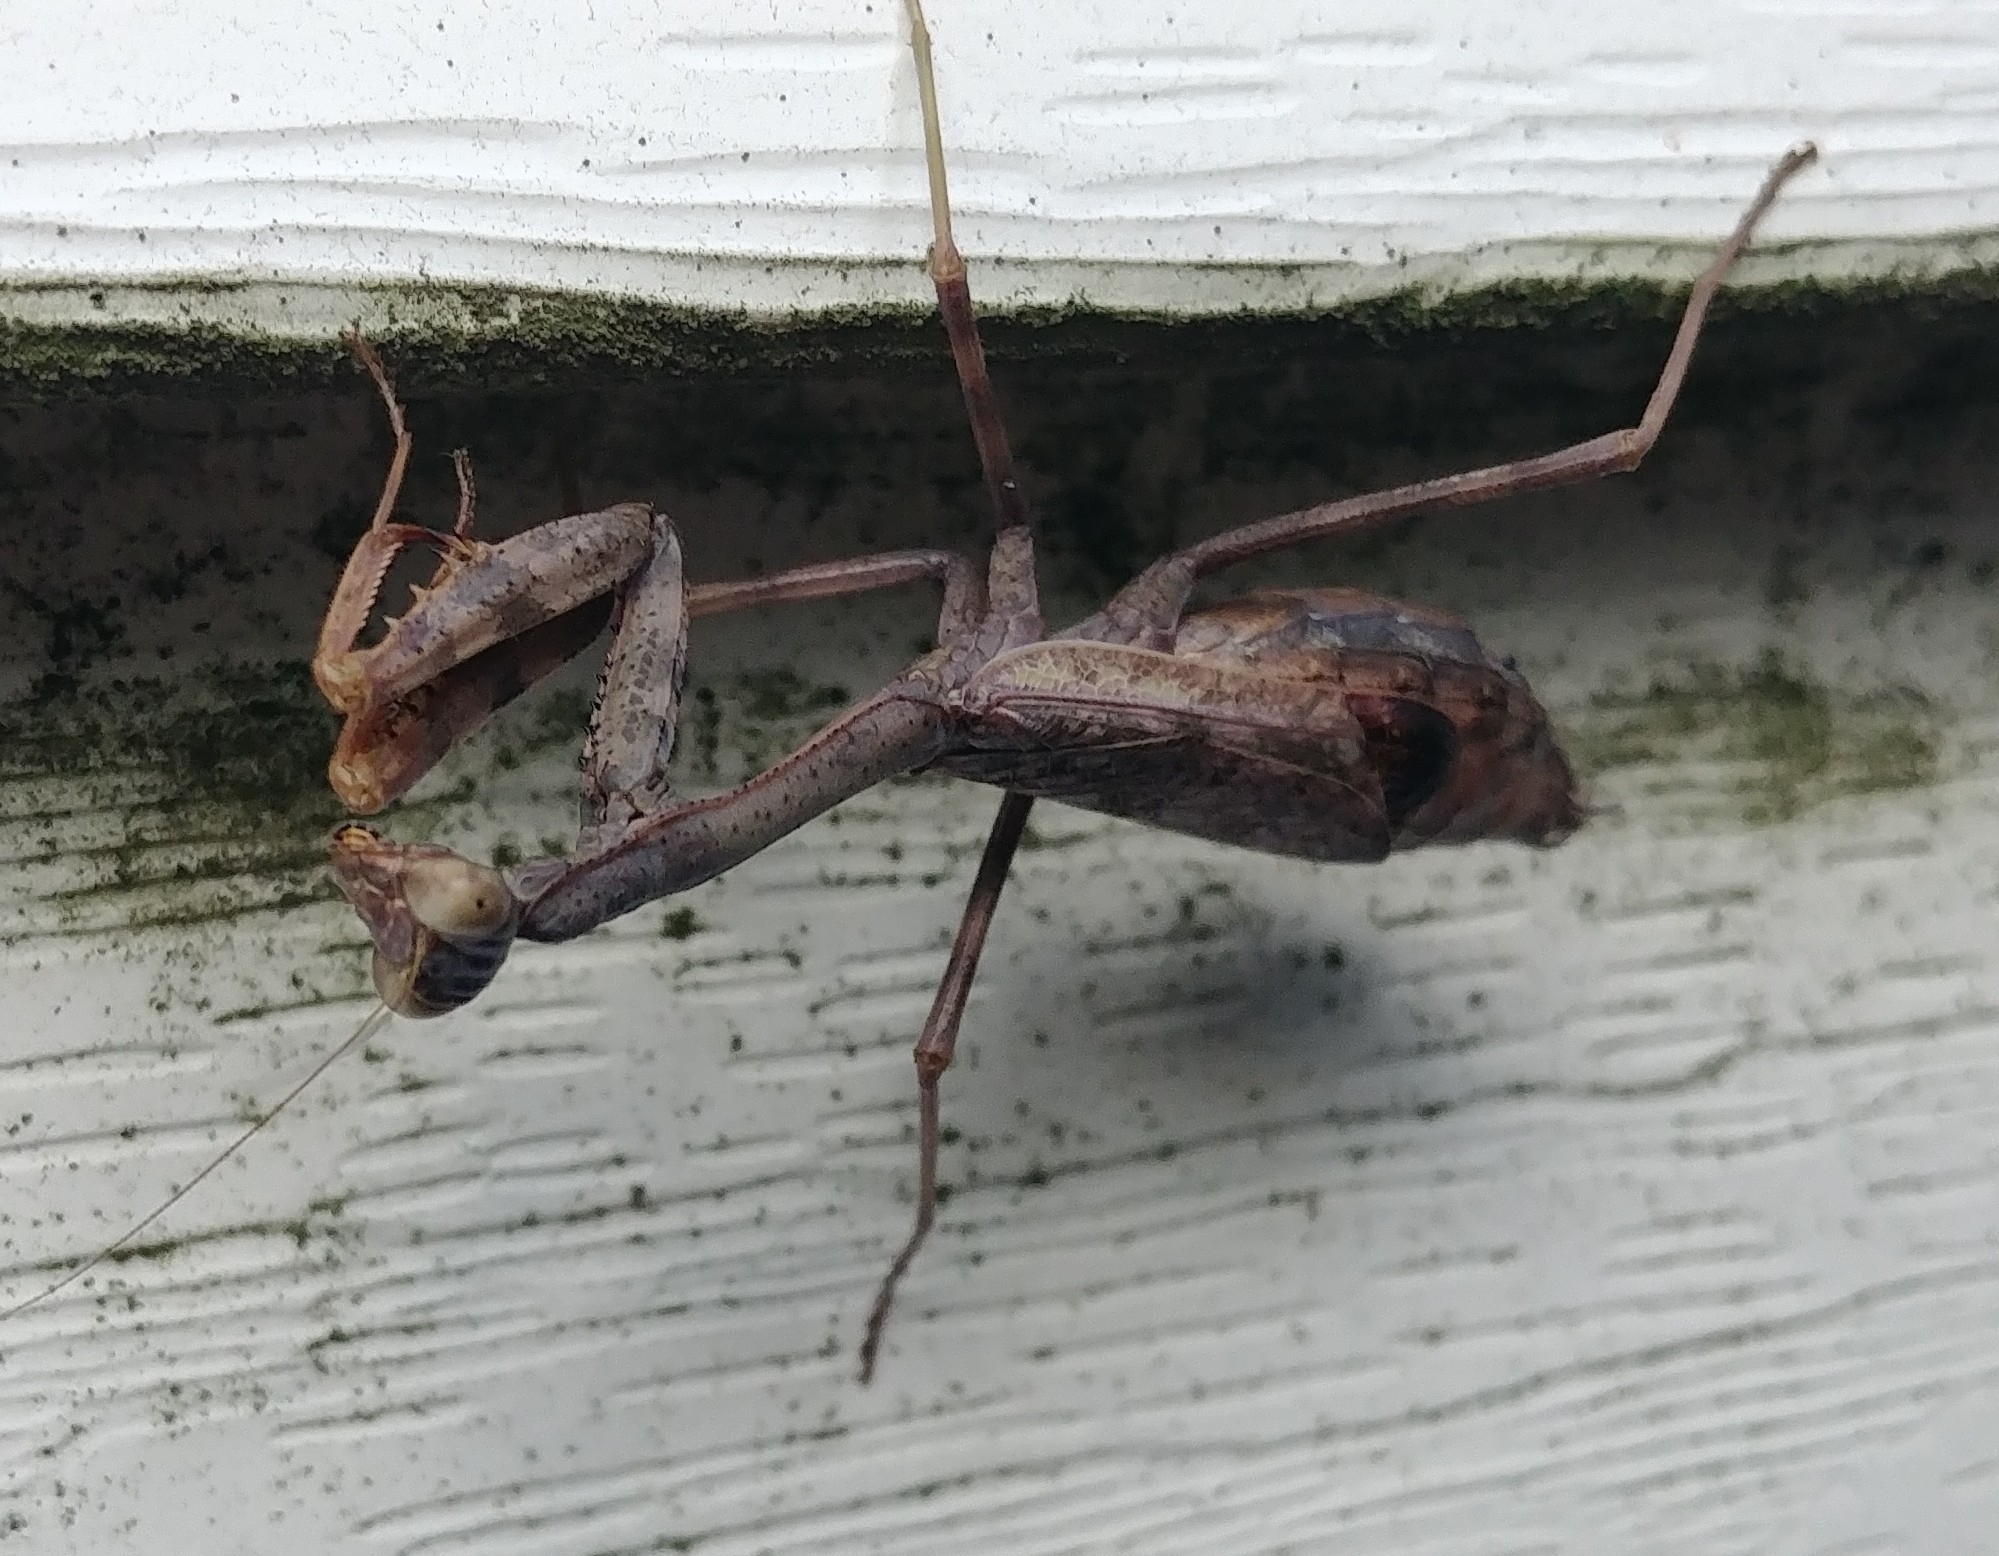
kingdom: Animalia
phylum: Arthropoda
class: Insecta
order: Mantodea
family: Mantidae
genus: Stagmomantis
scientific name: Stagmomantis carolina
